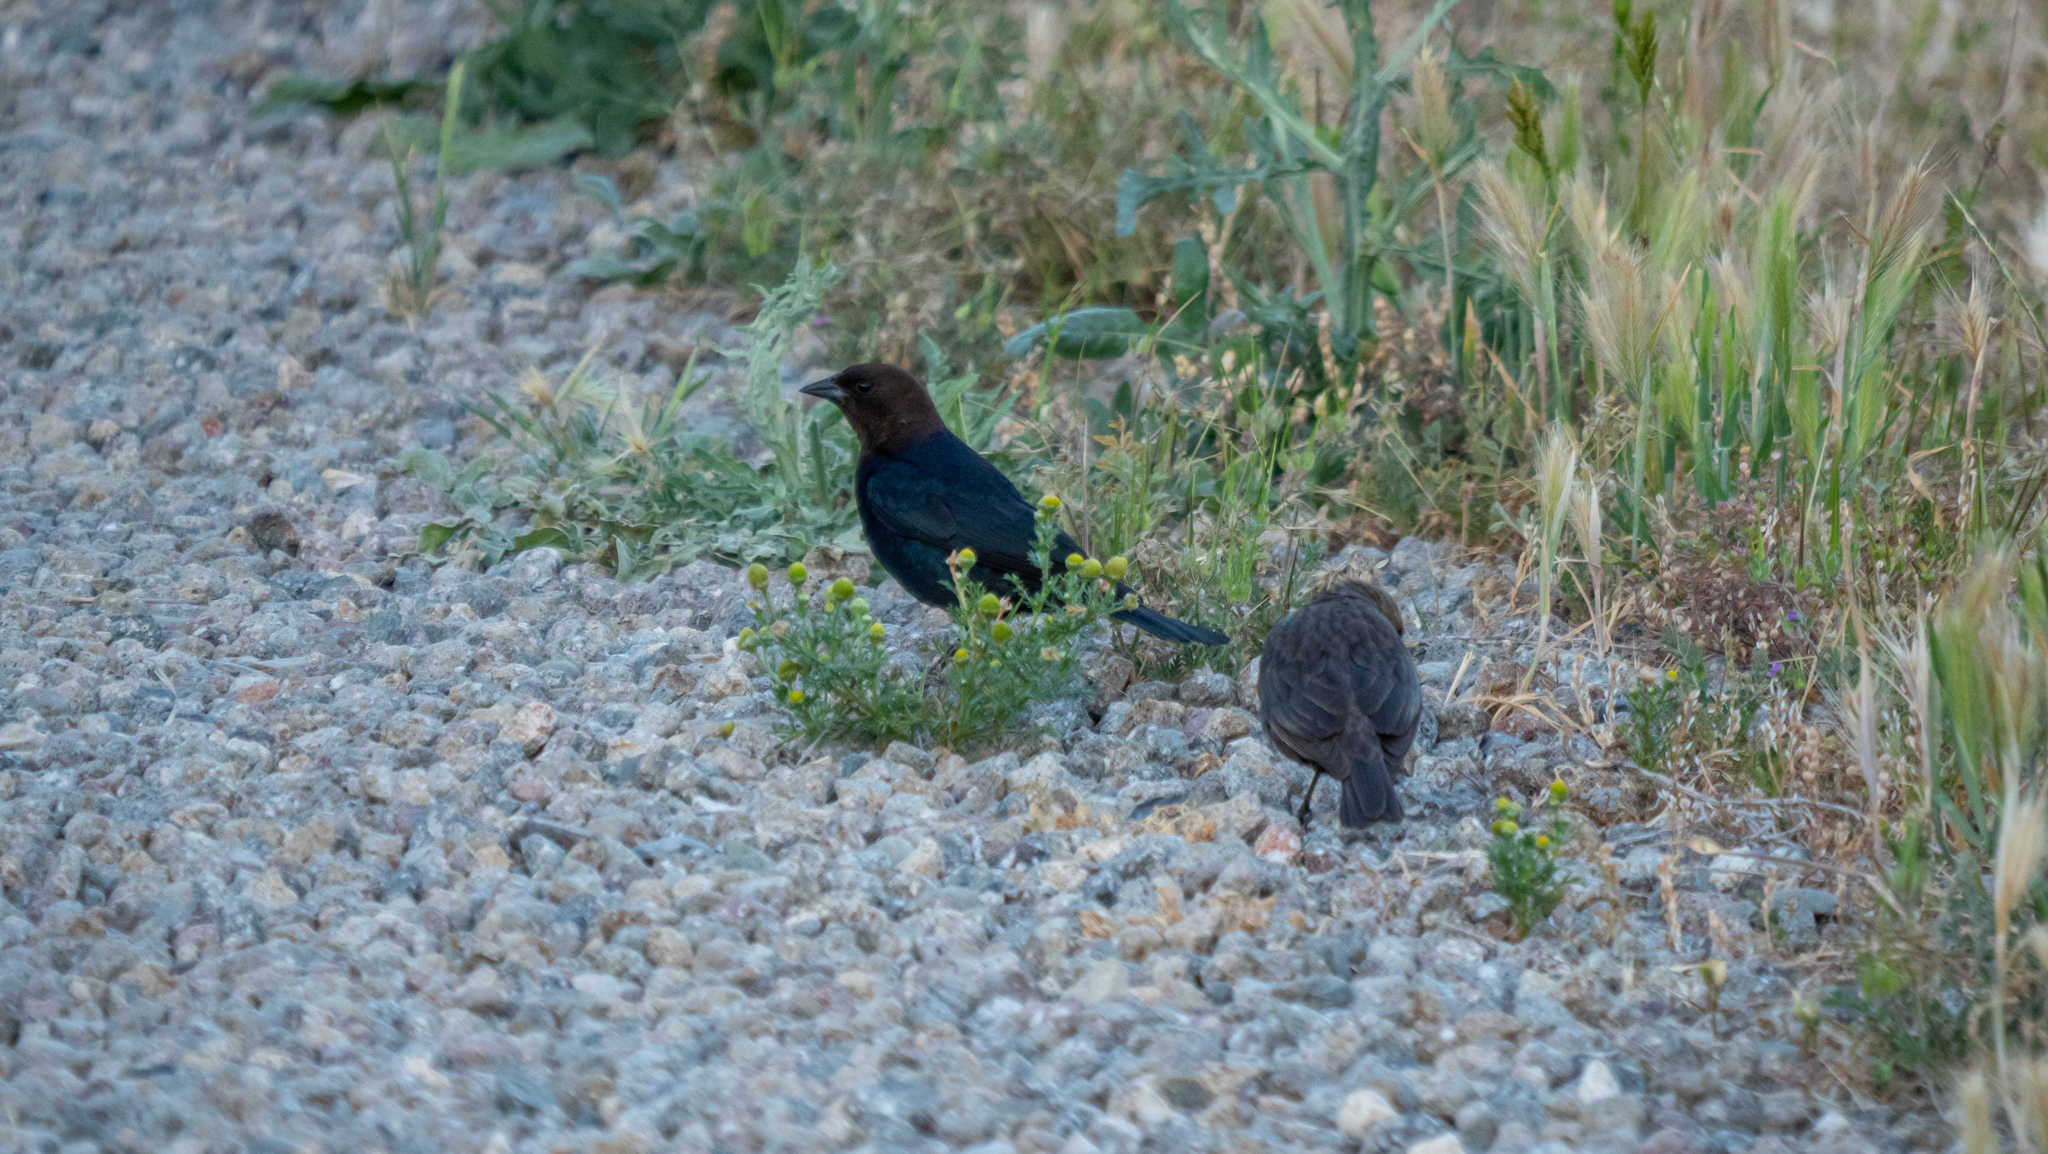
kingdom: Animalia
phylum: Chordata
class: Aves
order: Passeriformes
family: Icteridae
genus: Molothrus
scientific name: Molothrus ater
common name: Brown-headed cowbird
